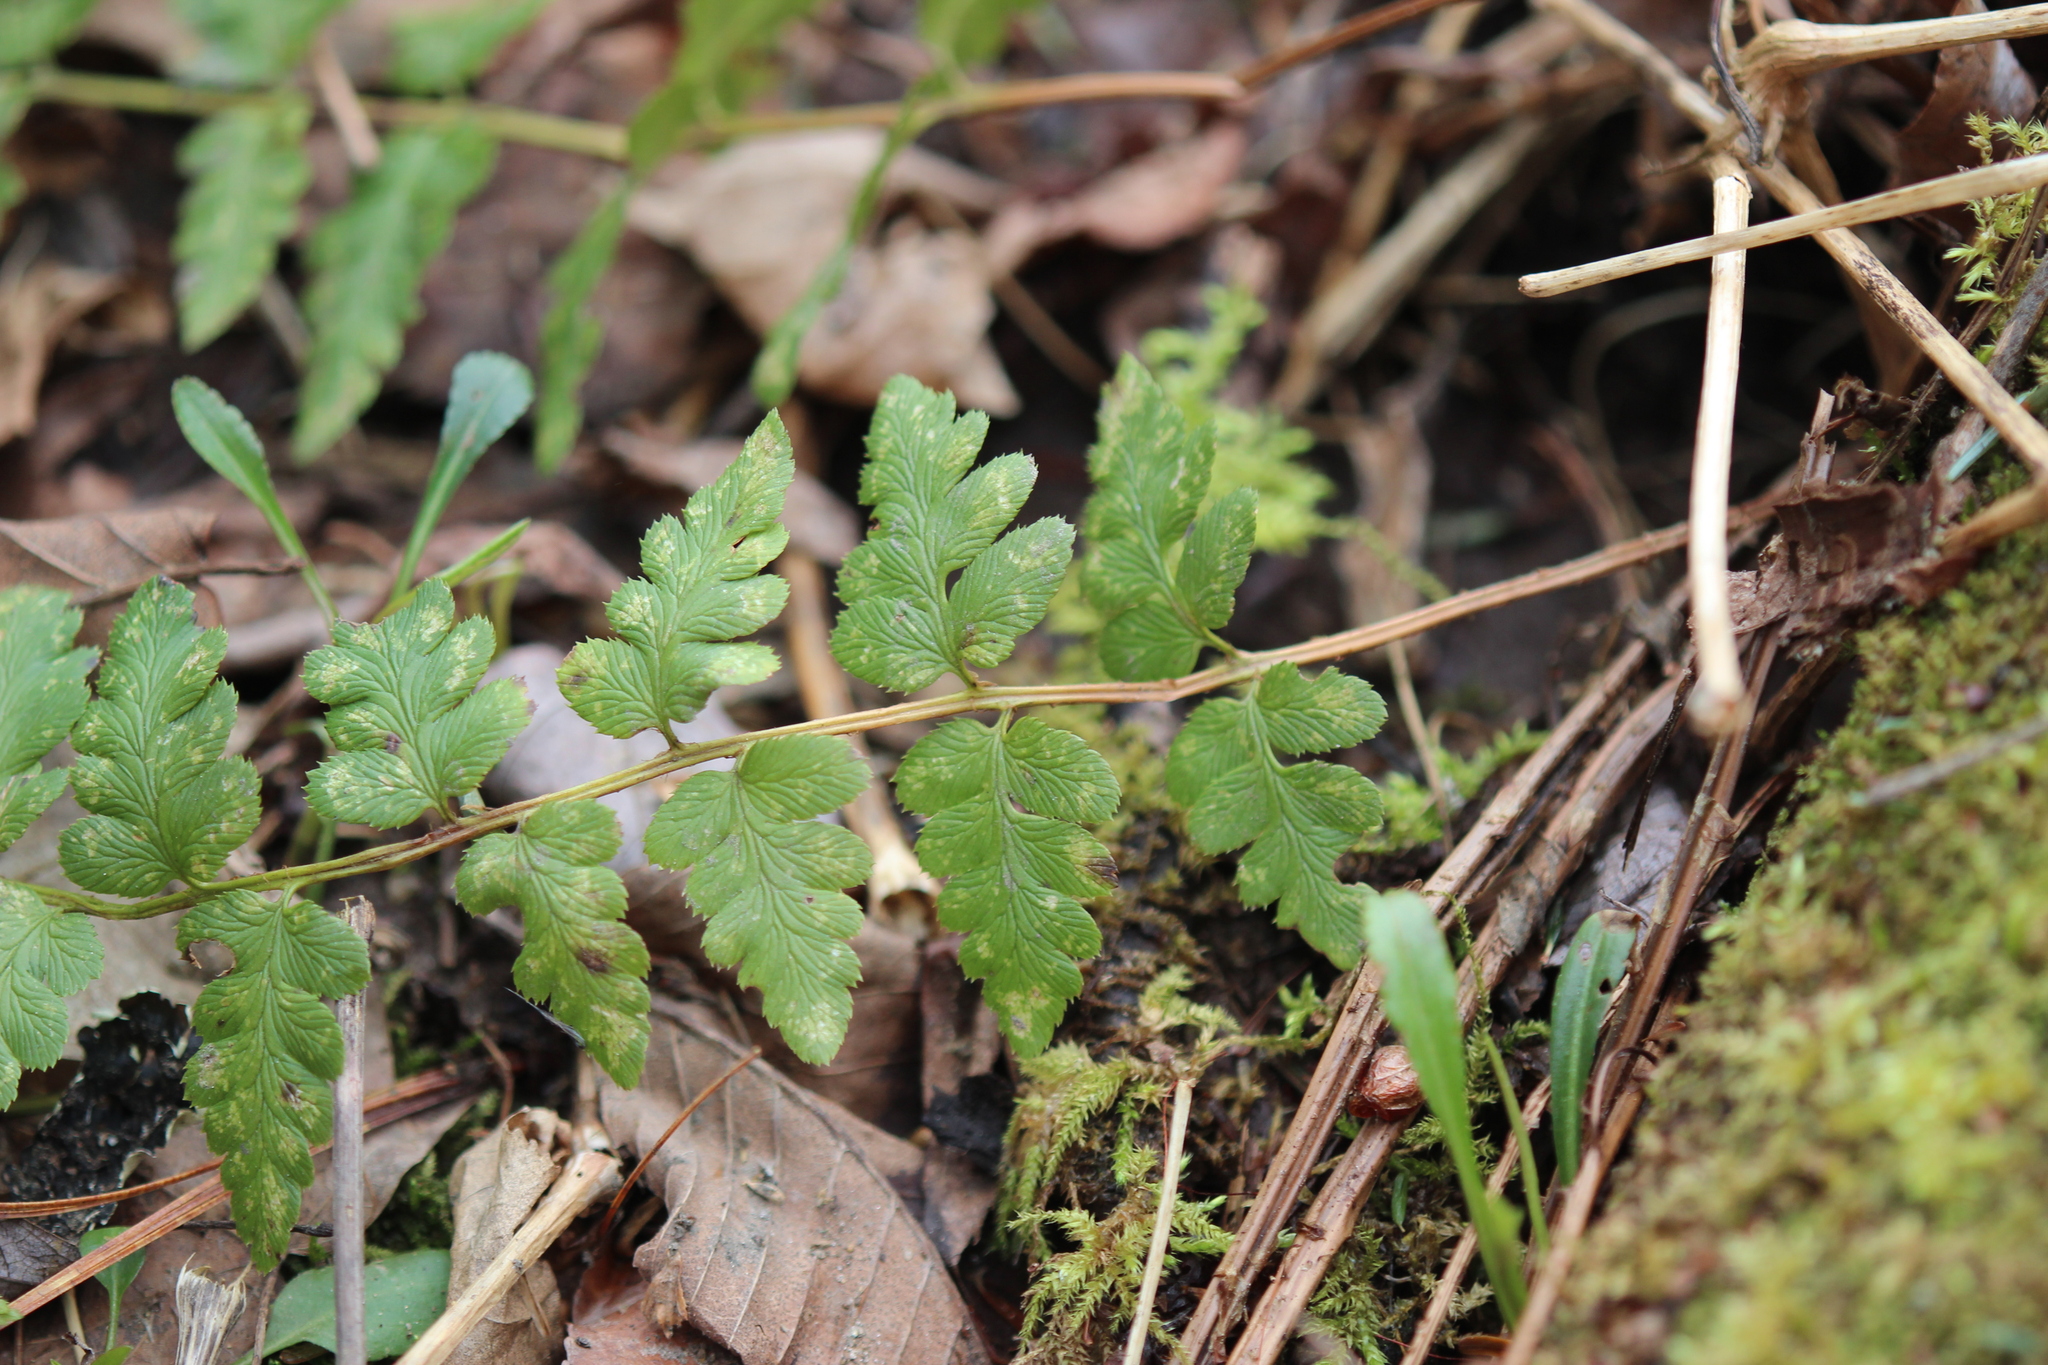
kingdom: Plantae
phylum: Tracheophyta
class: Polypodiopsida
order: Polypodiales
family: Dryopteridaceae
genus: Dryopteris
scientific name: Dryopteris cristata
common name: Crested wood fern
